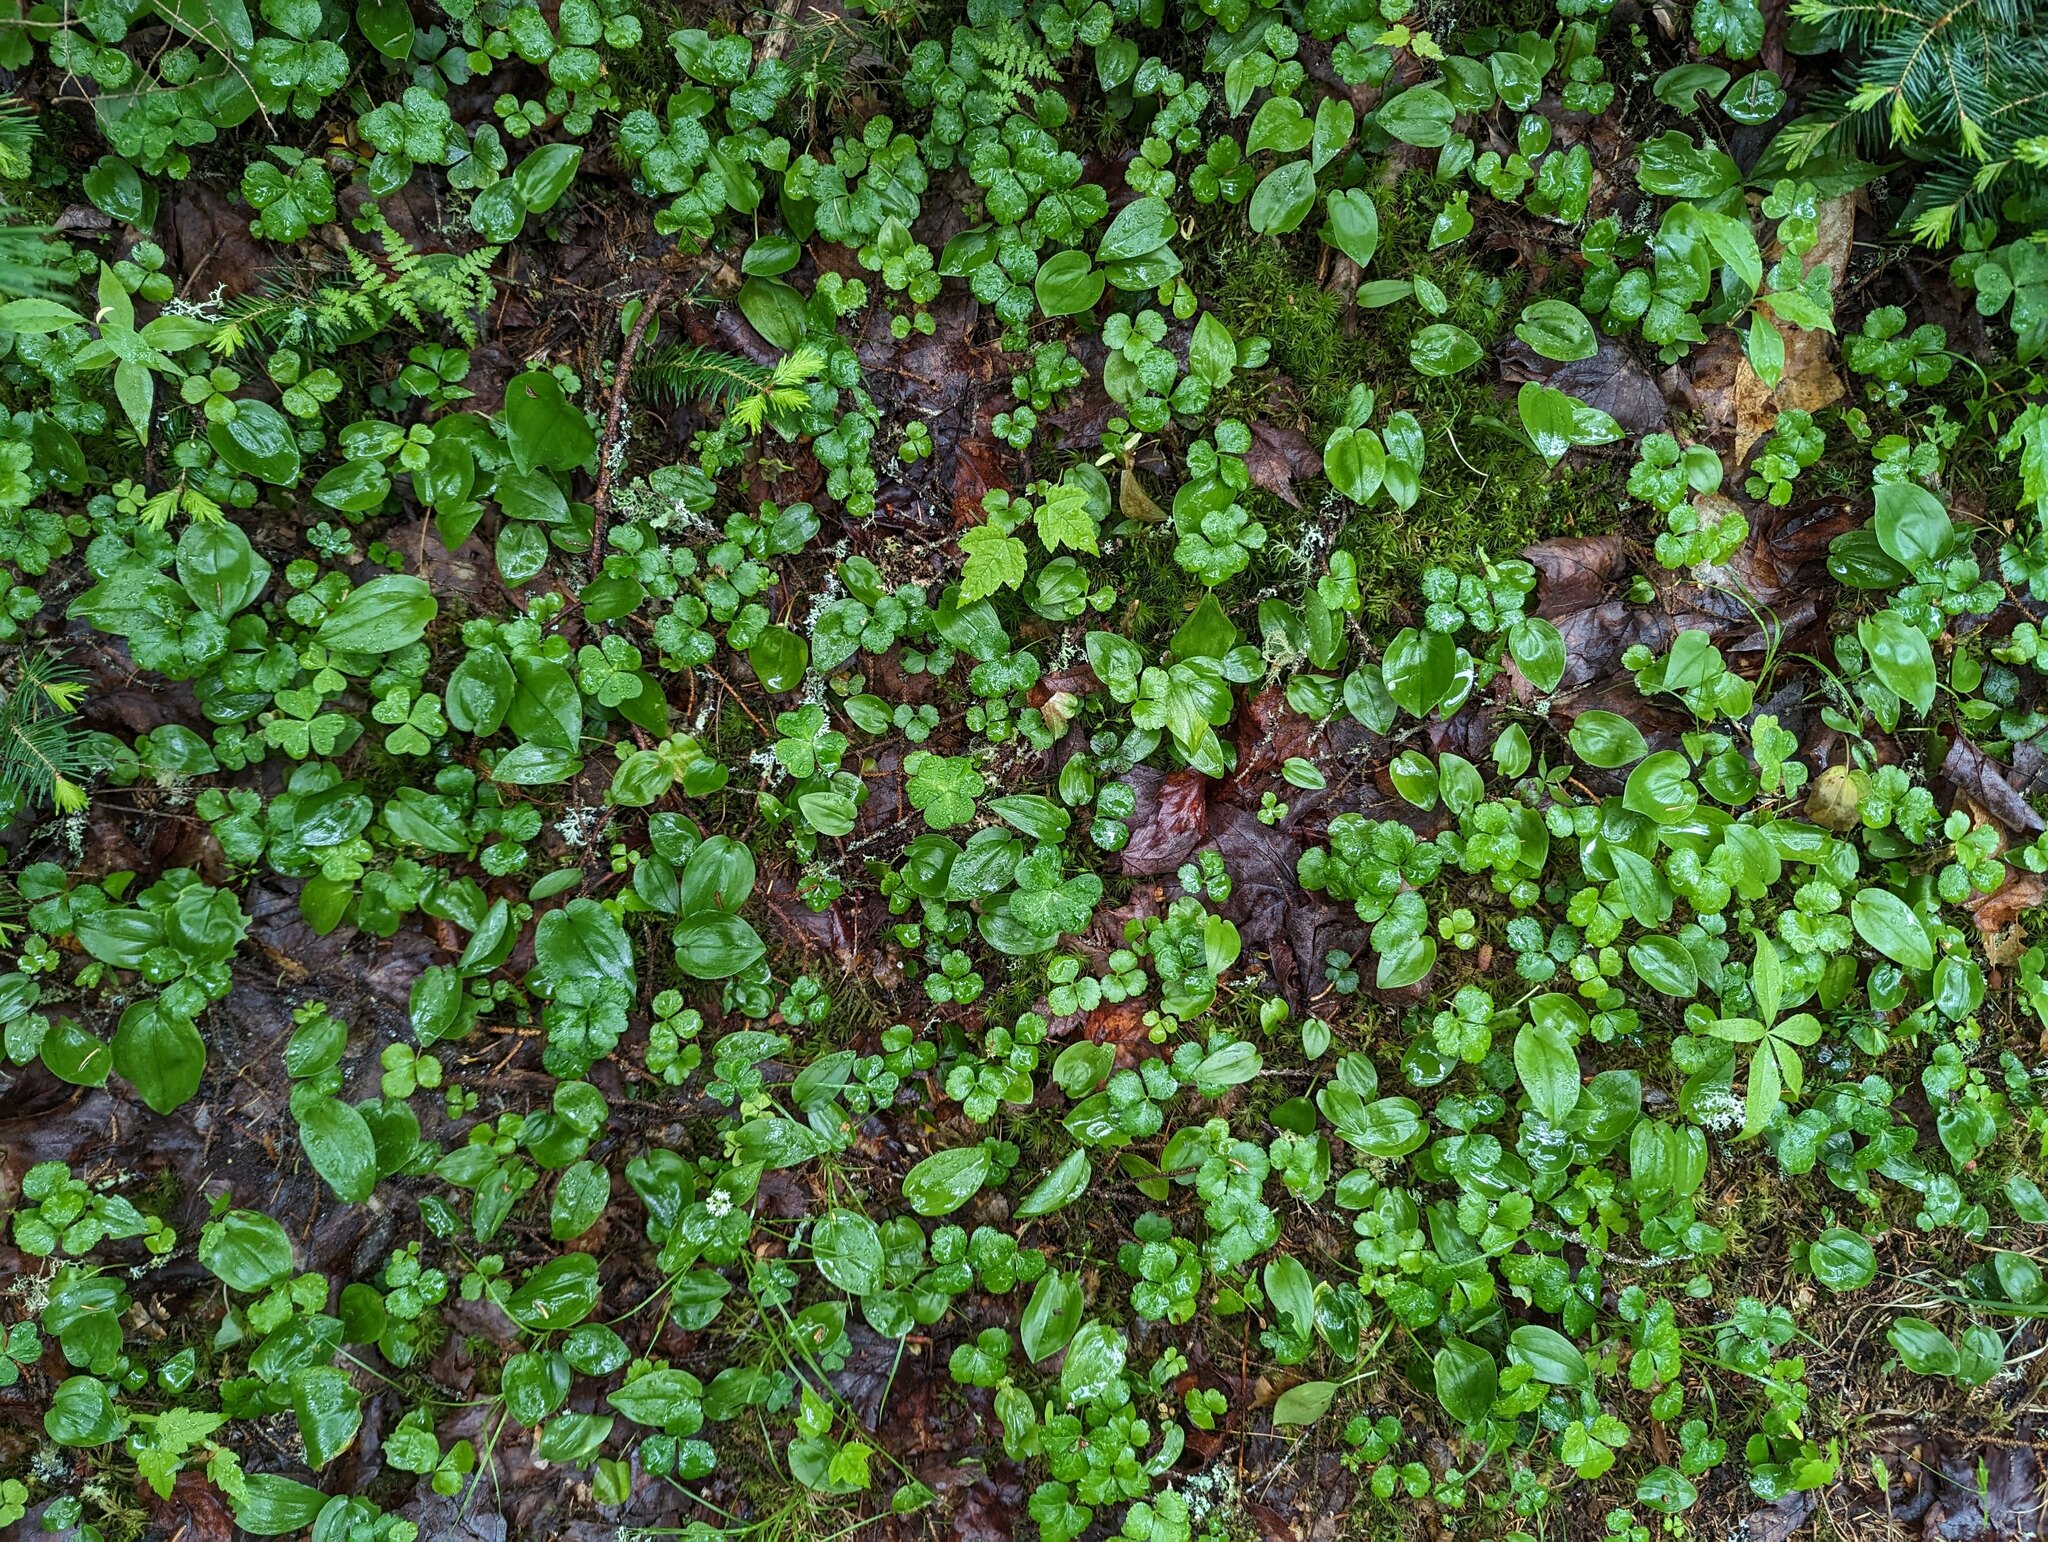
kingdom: Plantae
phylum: Tracheophyta
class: Magnoliopsida
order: Ranunculales
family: Ranunculaceae
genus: Coptis
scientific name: Coptis trifolia
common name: Canker-root
